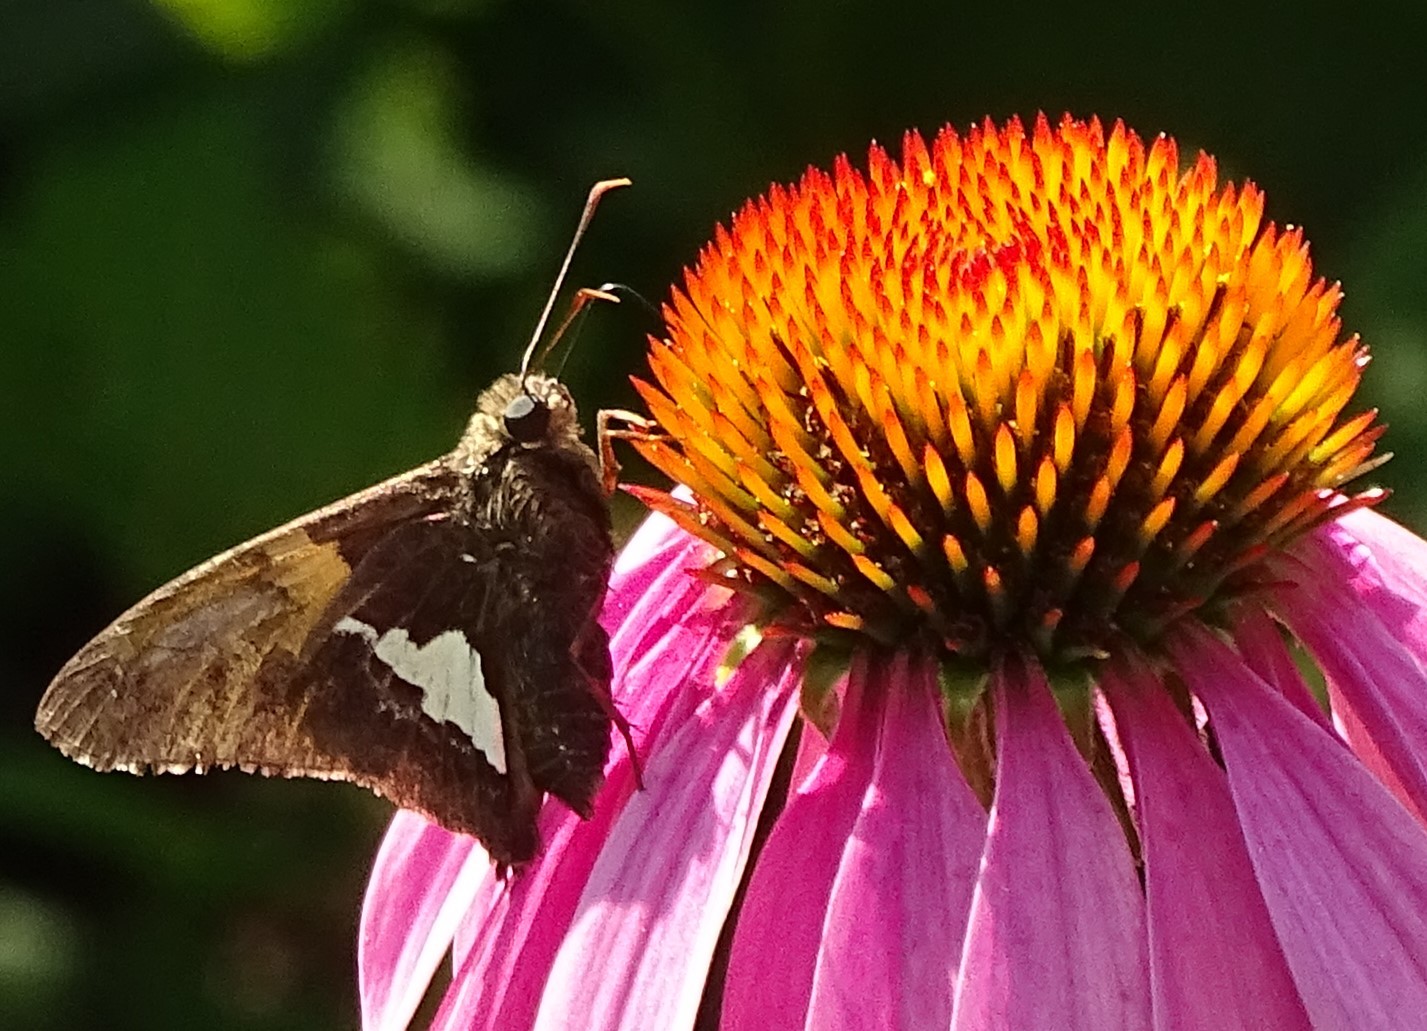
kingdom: Animalia
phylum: Arthropoda
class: Insecta
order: Lepidoptera
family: Hesperiidae
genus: Epargyreus
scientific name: Epargyreus clarus
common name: Silver-spotted skipper
